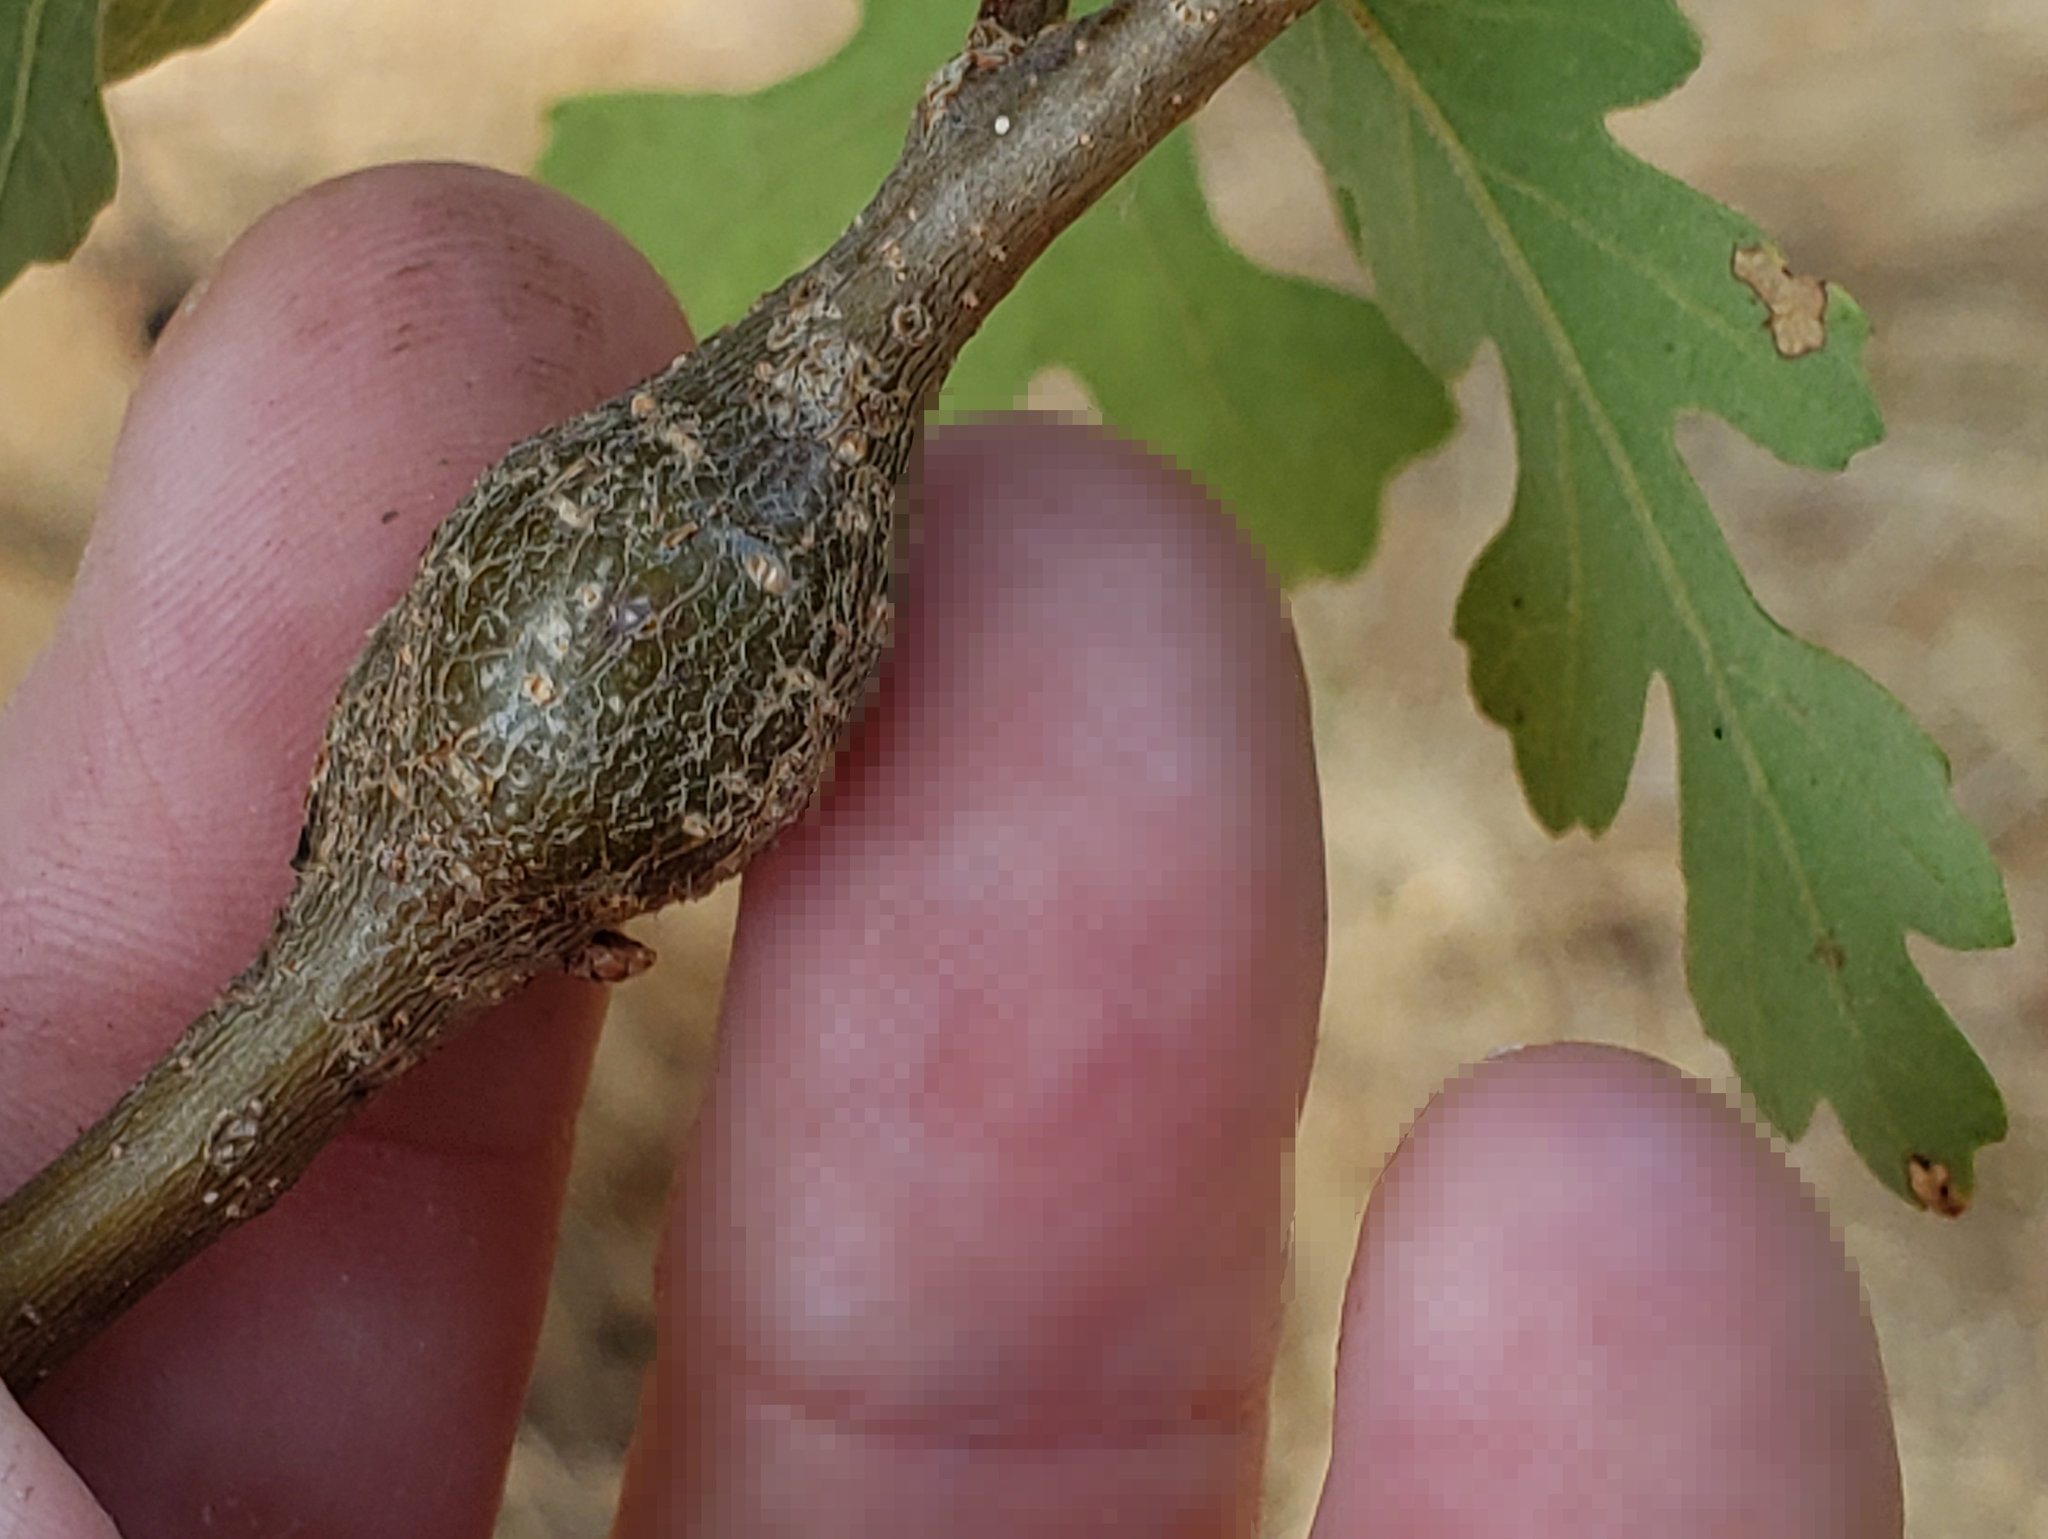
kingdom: Animalia
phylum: Arthropoda
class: Insecta
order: Hymenoptera
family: Cynipidae
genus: Andricus
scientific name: Andricus
